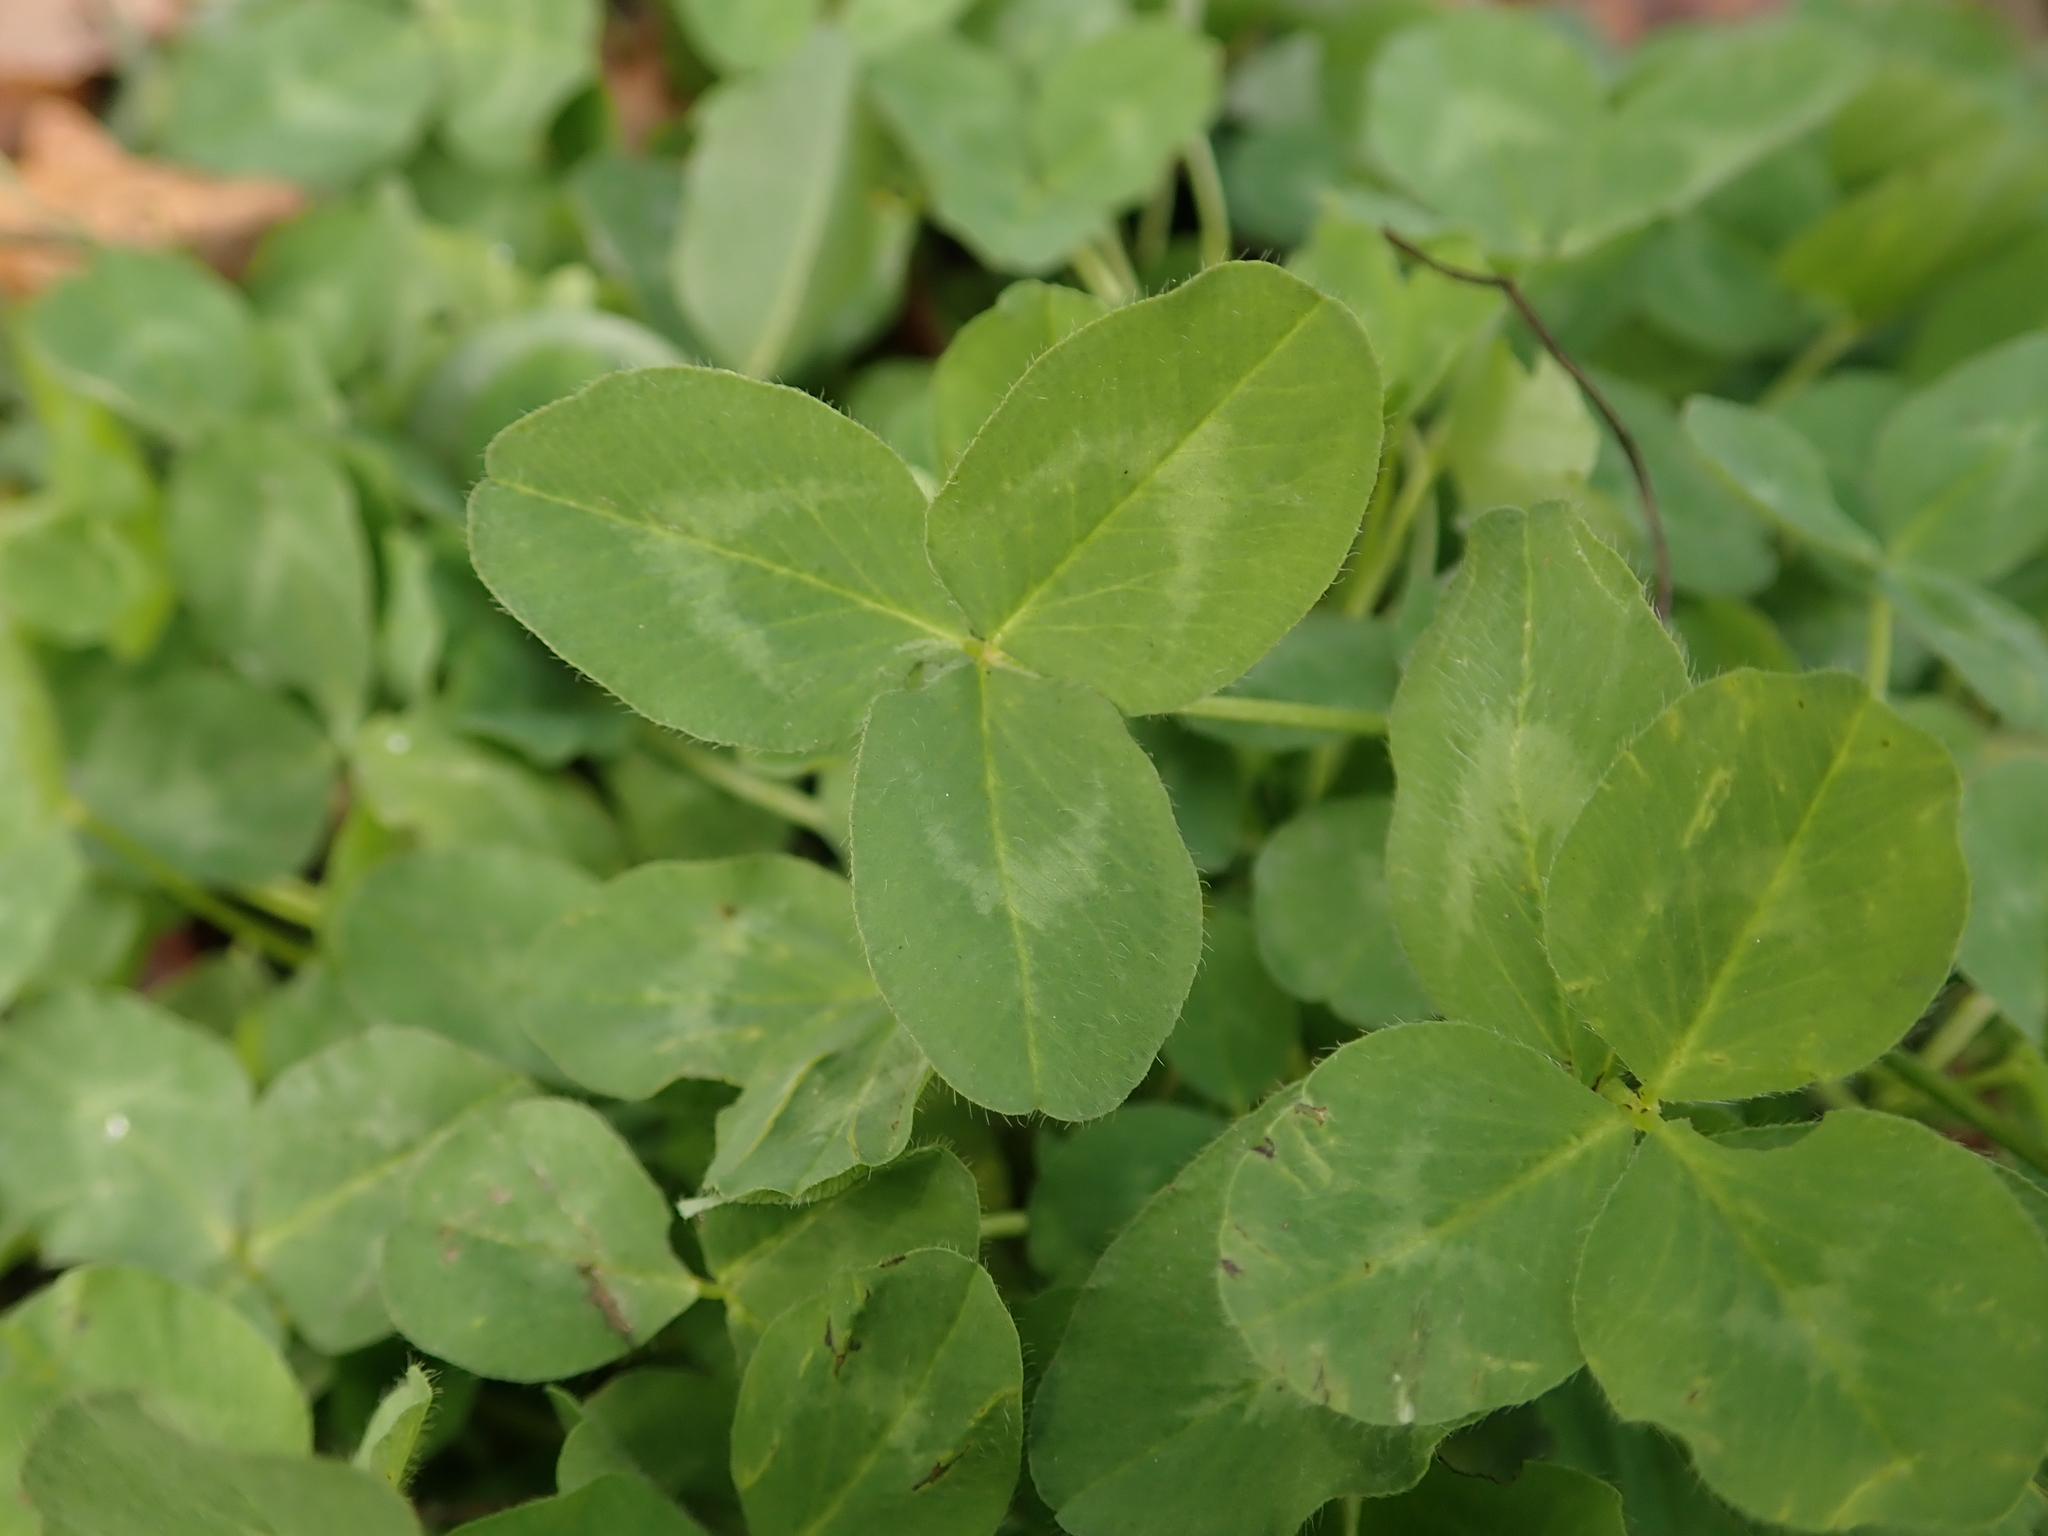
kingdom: Plantae
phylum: Tracheophyta
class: Magnoliopsida
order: Fabales
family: Fabaceae
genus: Trifolium
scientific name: Trifolium pratense
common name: Red clover
